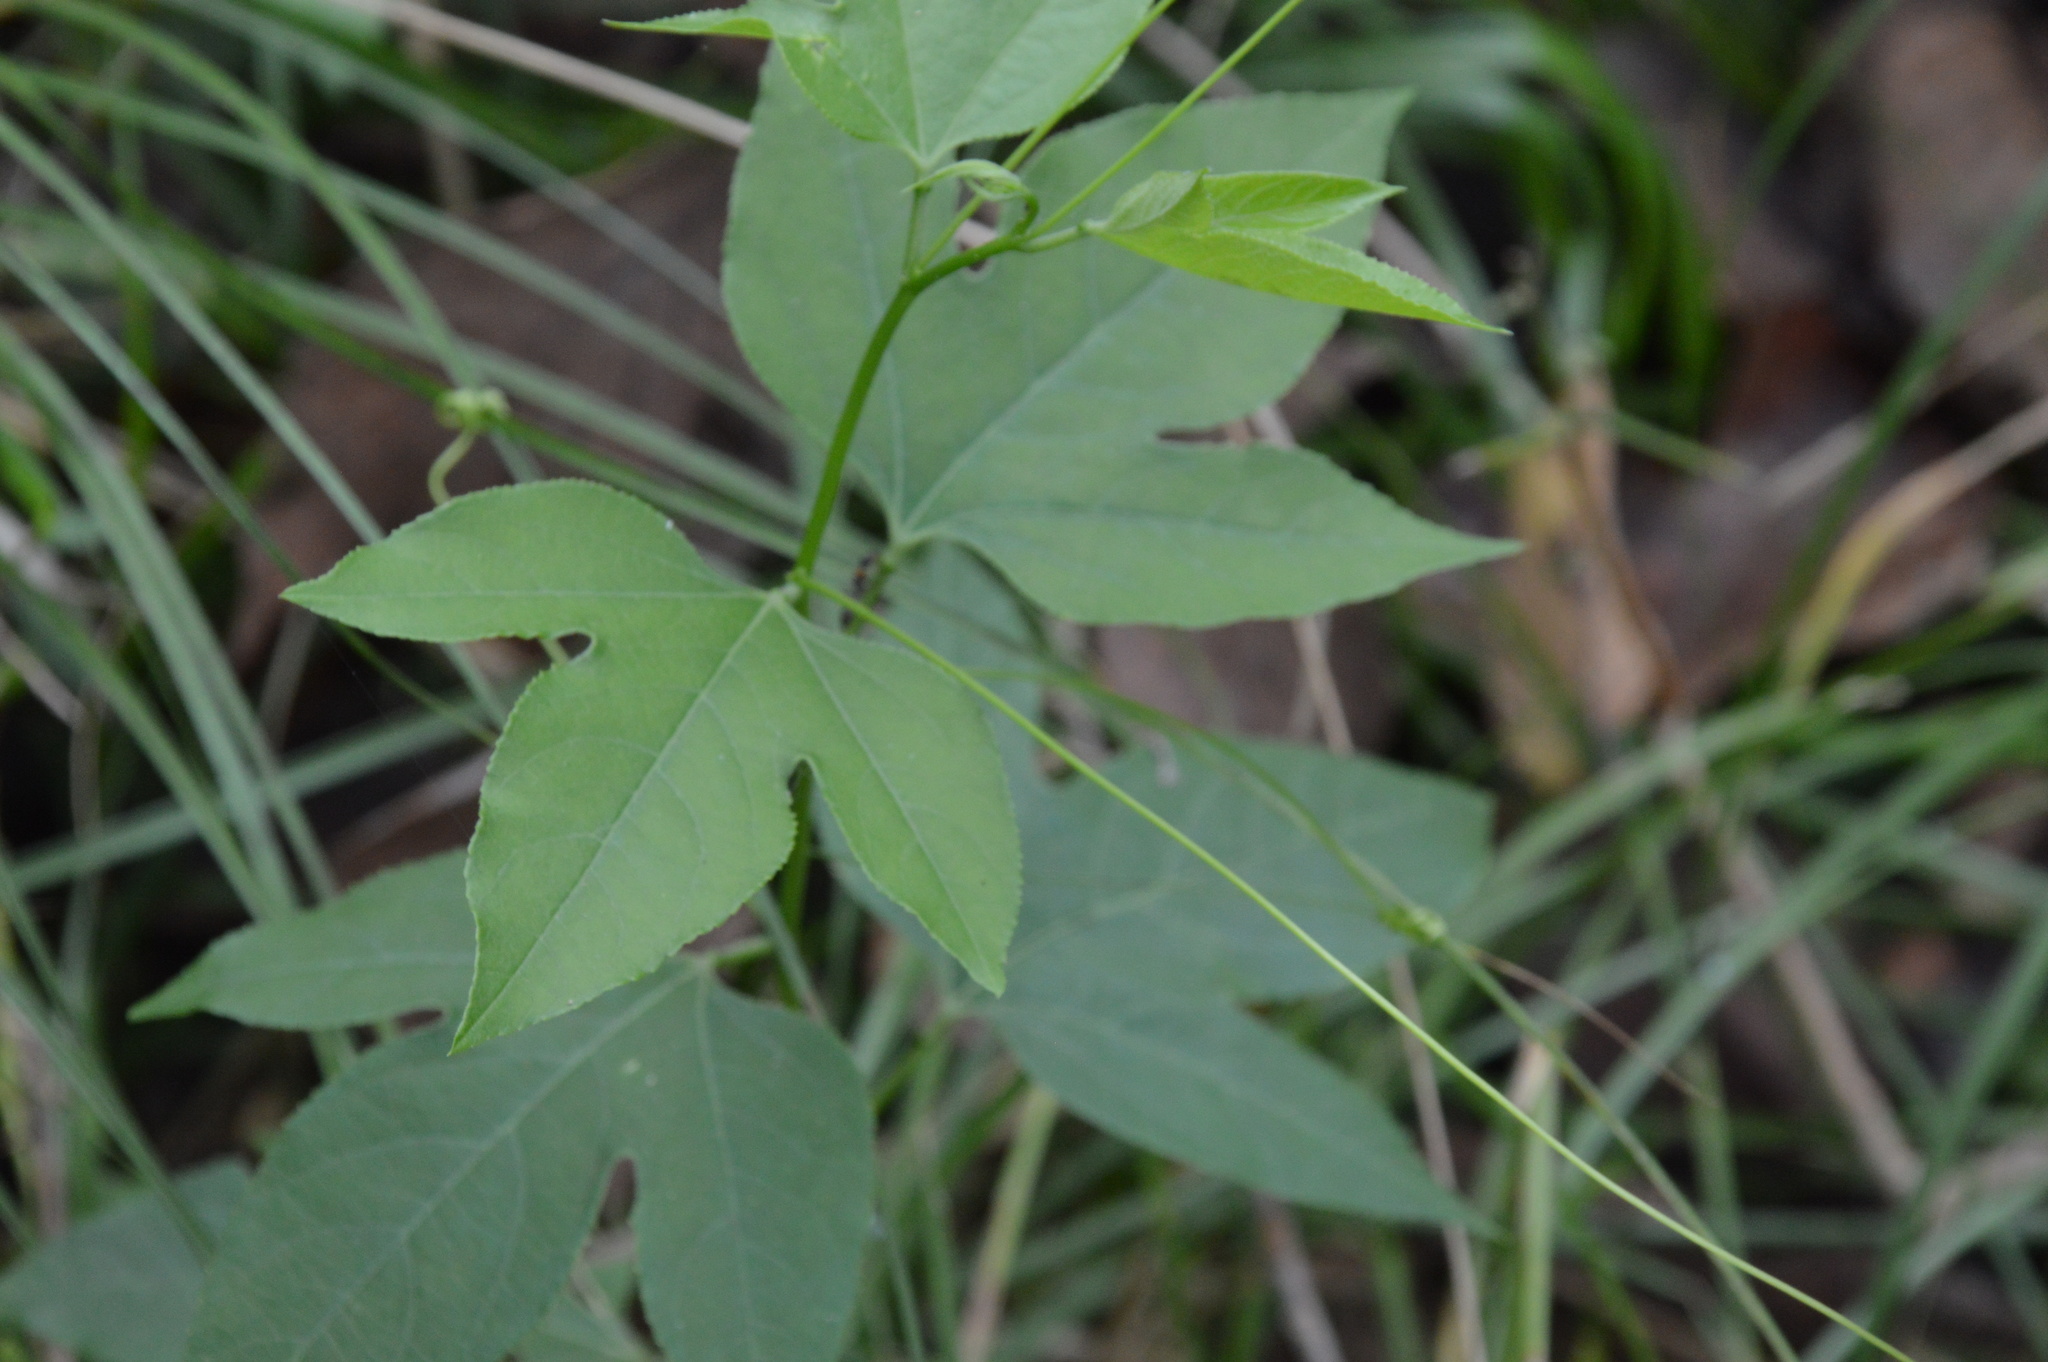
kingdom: Plantae
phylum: Tracheophyta
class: Magnoliopsida
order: Malpighiales
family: Passifloraceae
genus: Passiflora
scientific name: Passiflora incarnata
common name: Apricot-vine
